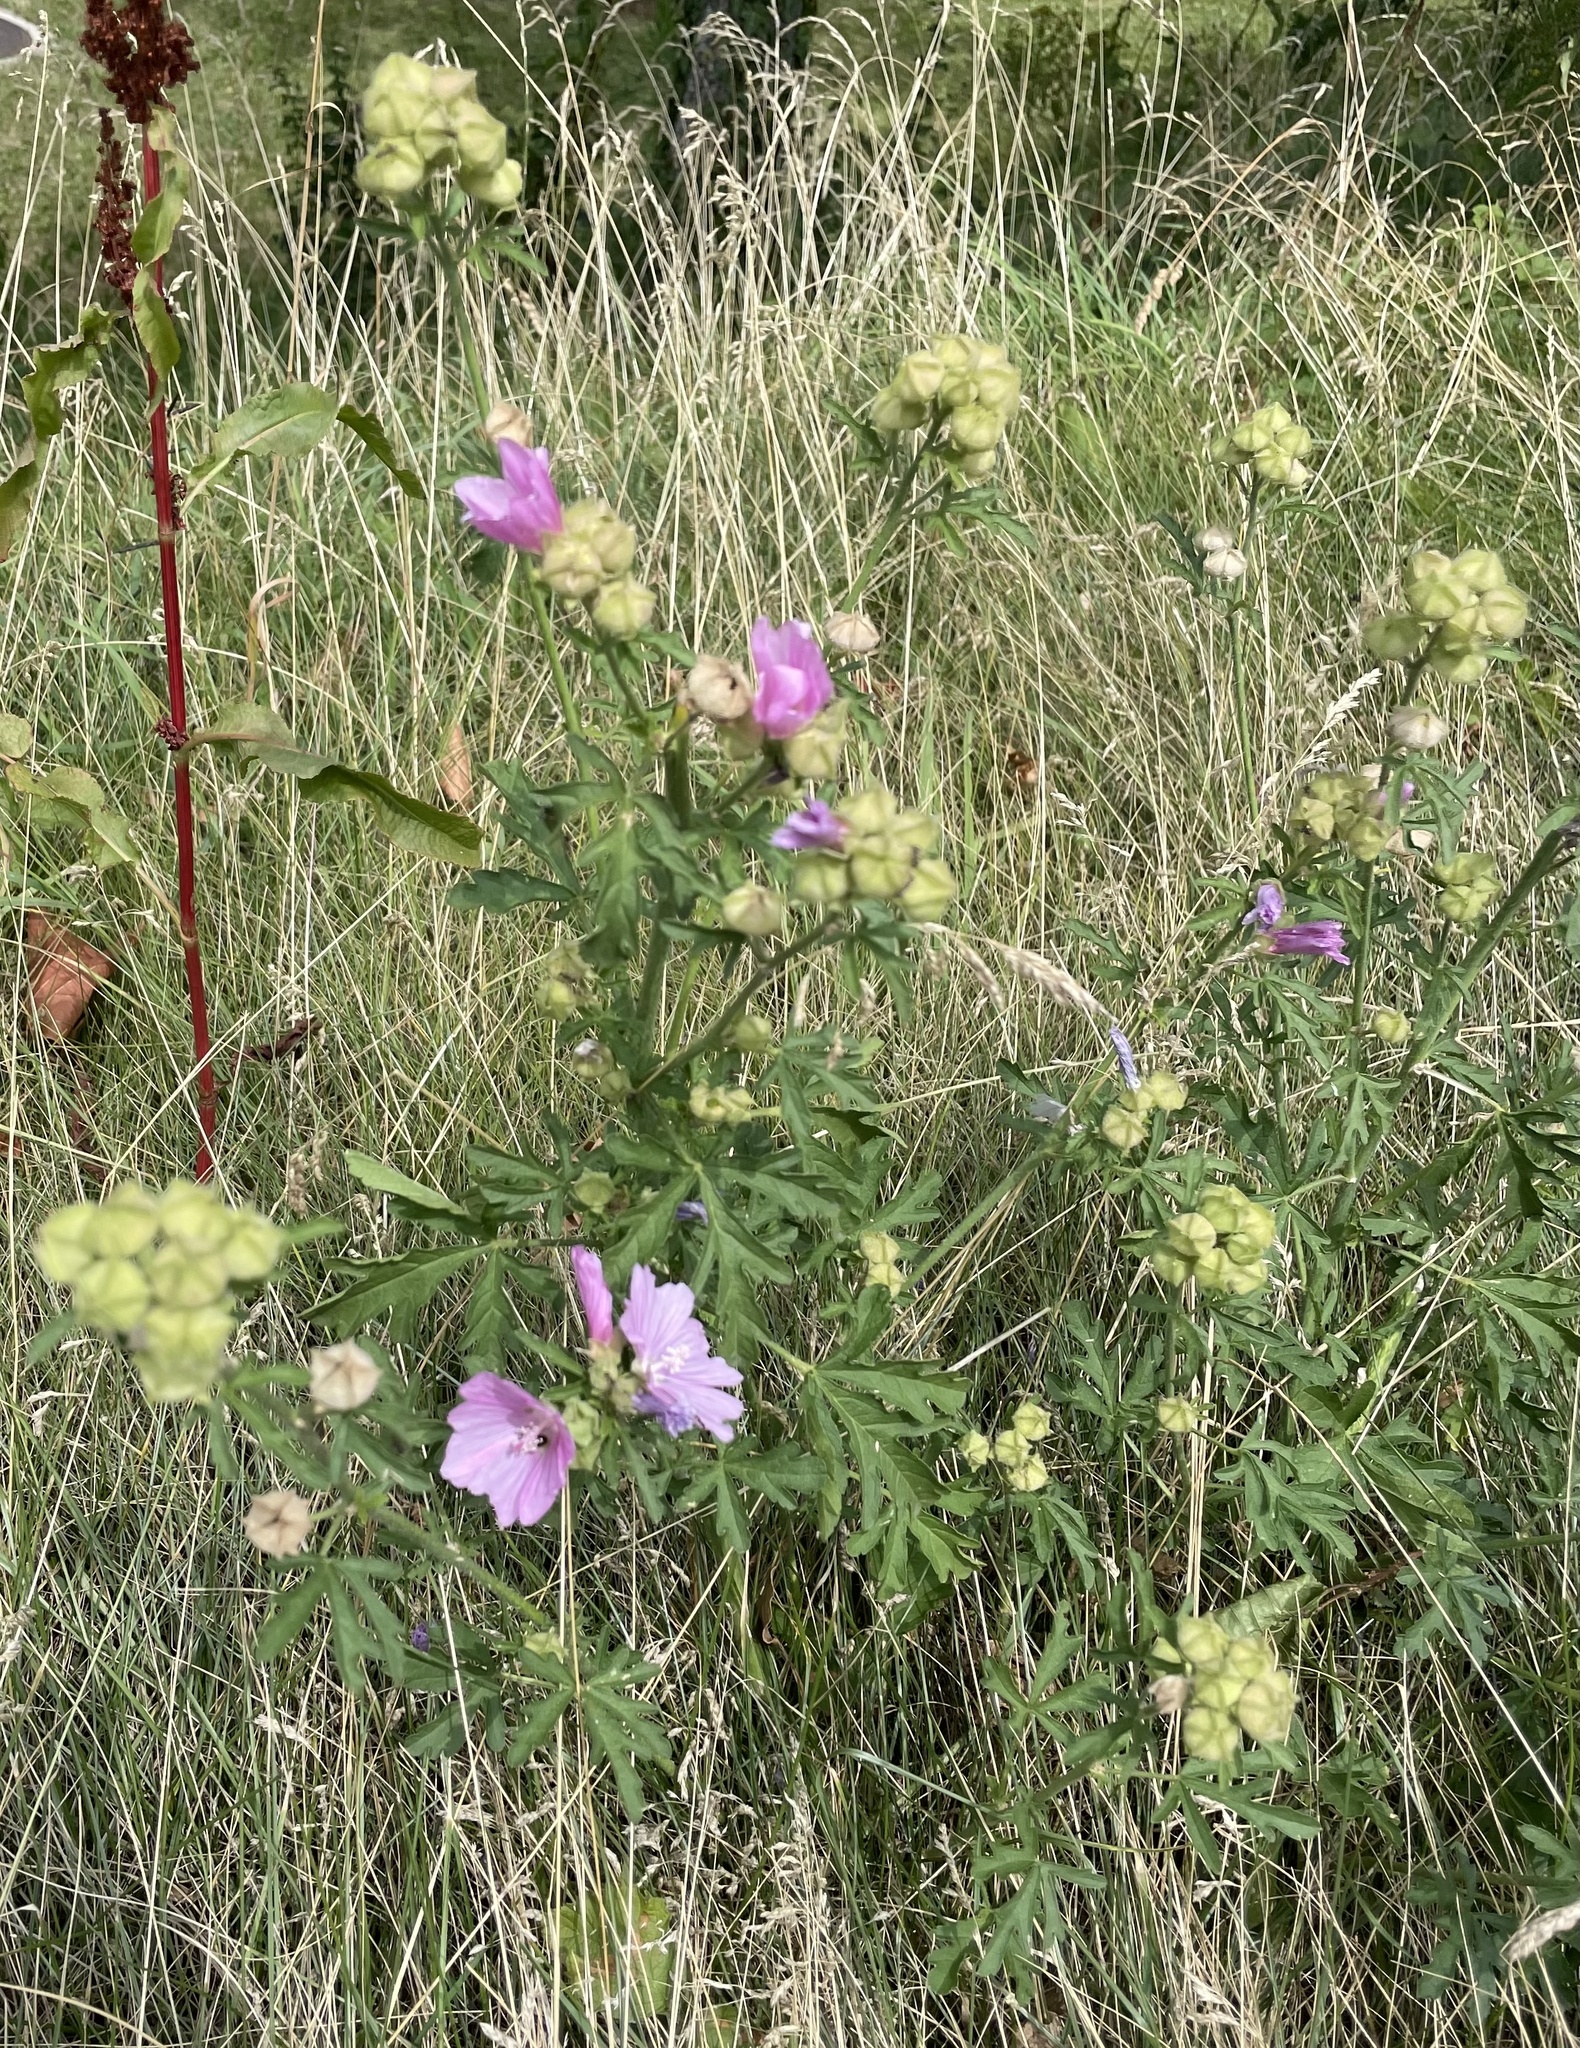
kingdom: Plantae
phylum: Tracheophyta
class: Magnoliopsida
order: Malvales
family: Malvaceae
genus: Malva
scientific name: Malva alcea
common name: Greater musk-mallow
